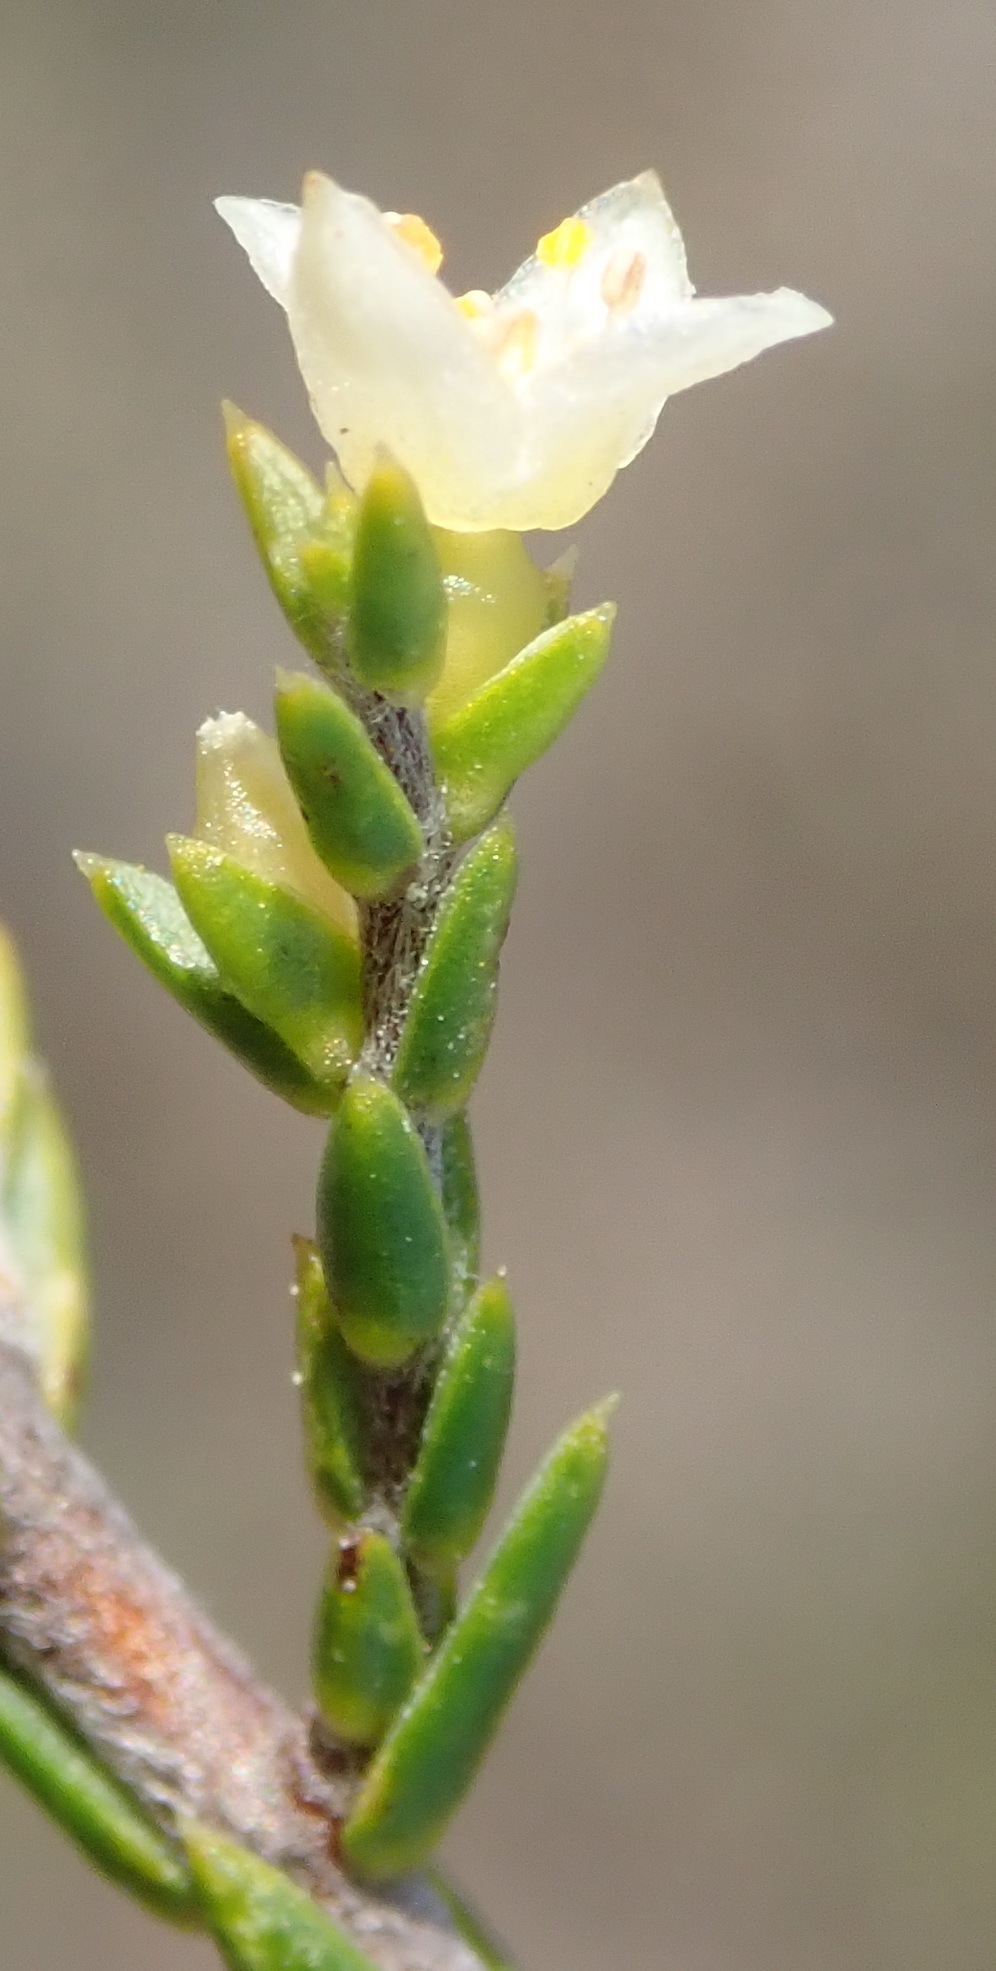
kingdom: Plantae
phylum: Tracheophyta
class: Magnoliopsida
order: Malvales
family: Thymelaeaceae
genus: Lachnaea
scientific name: Lachnaea axillaris
